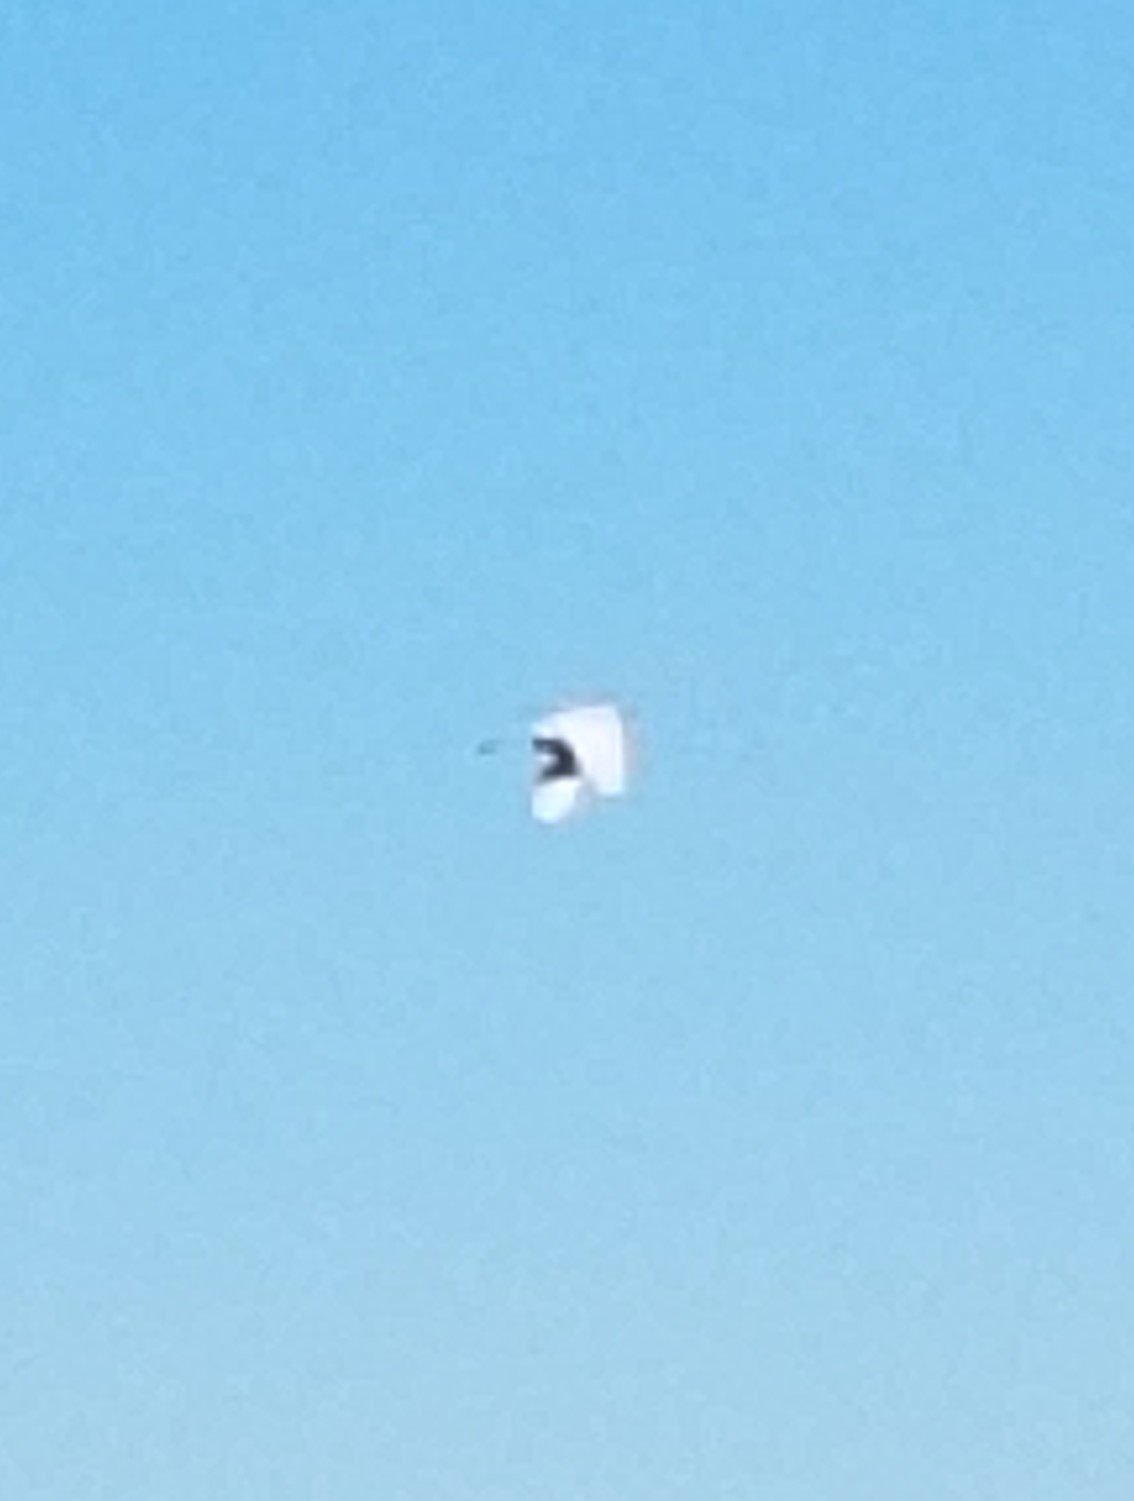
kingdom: Animalia
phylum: Chordata
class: Aves
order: Pelecaniformes
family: Ardeidae
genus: Ardea
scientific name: Ardea alba
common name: Great egret
